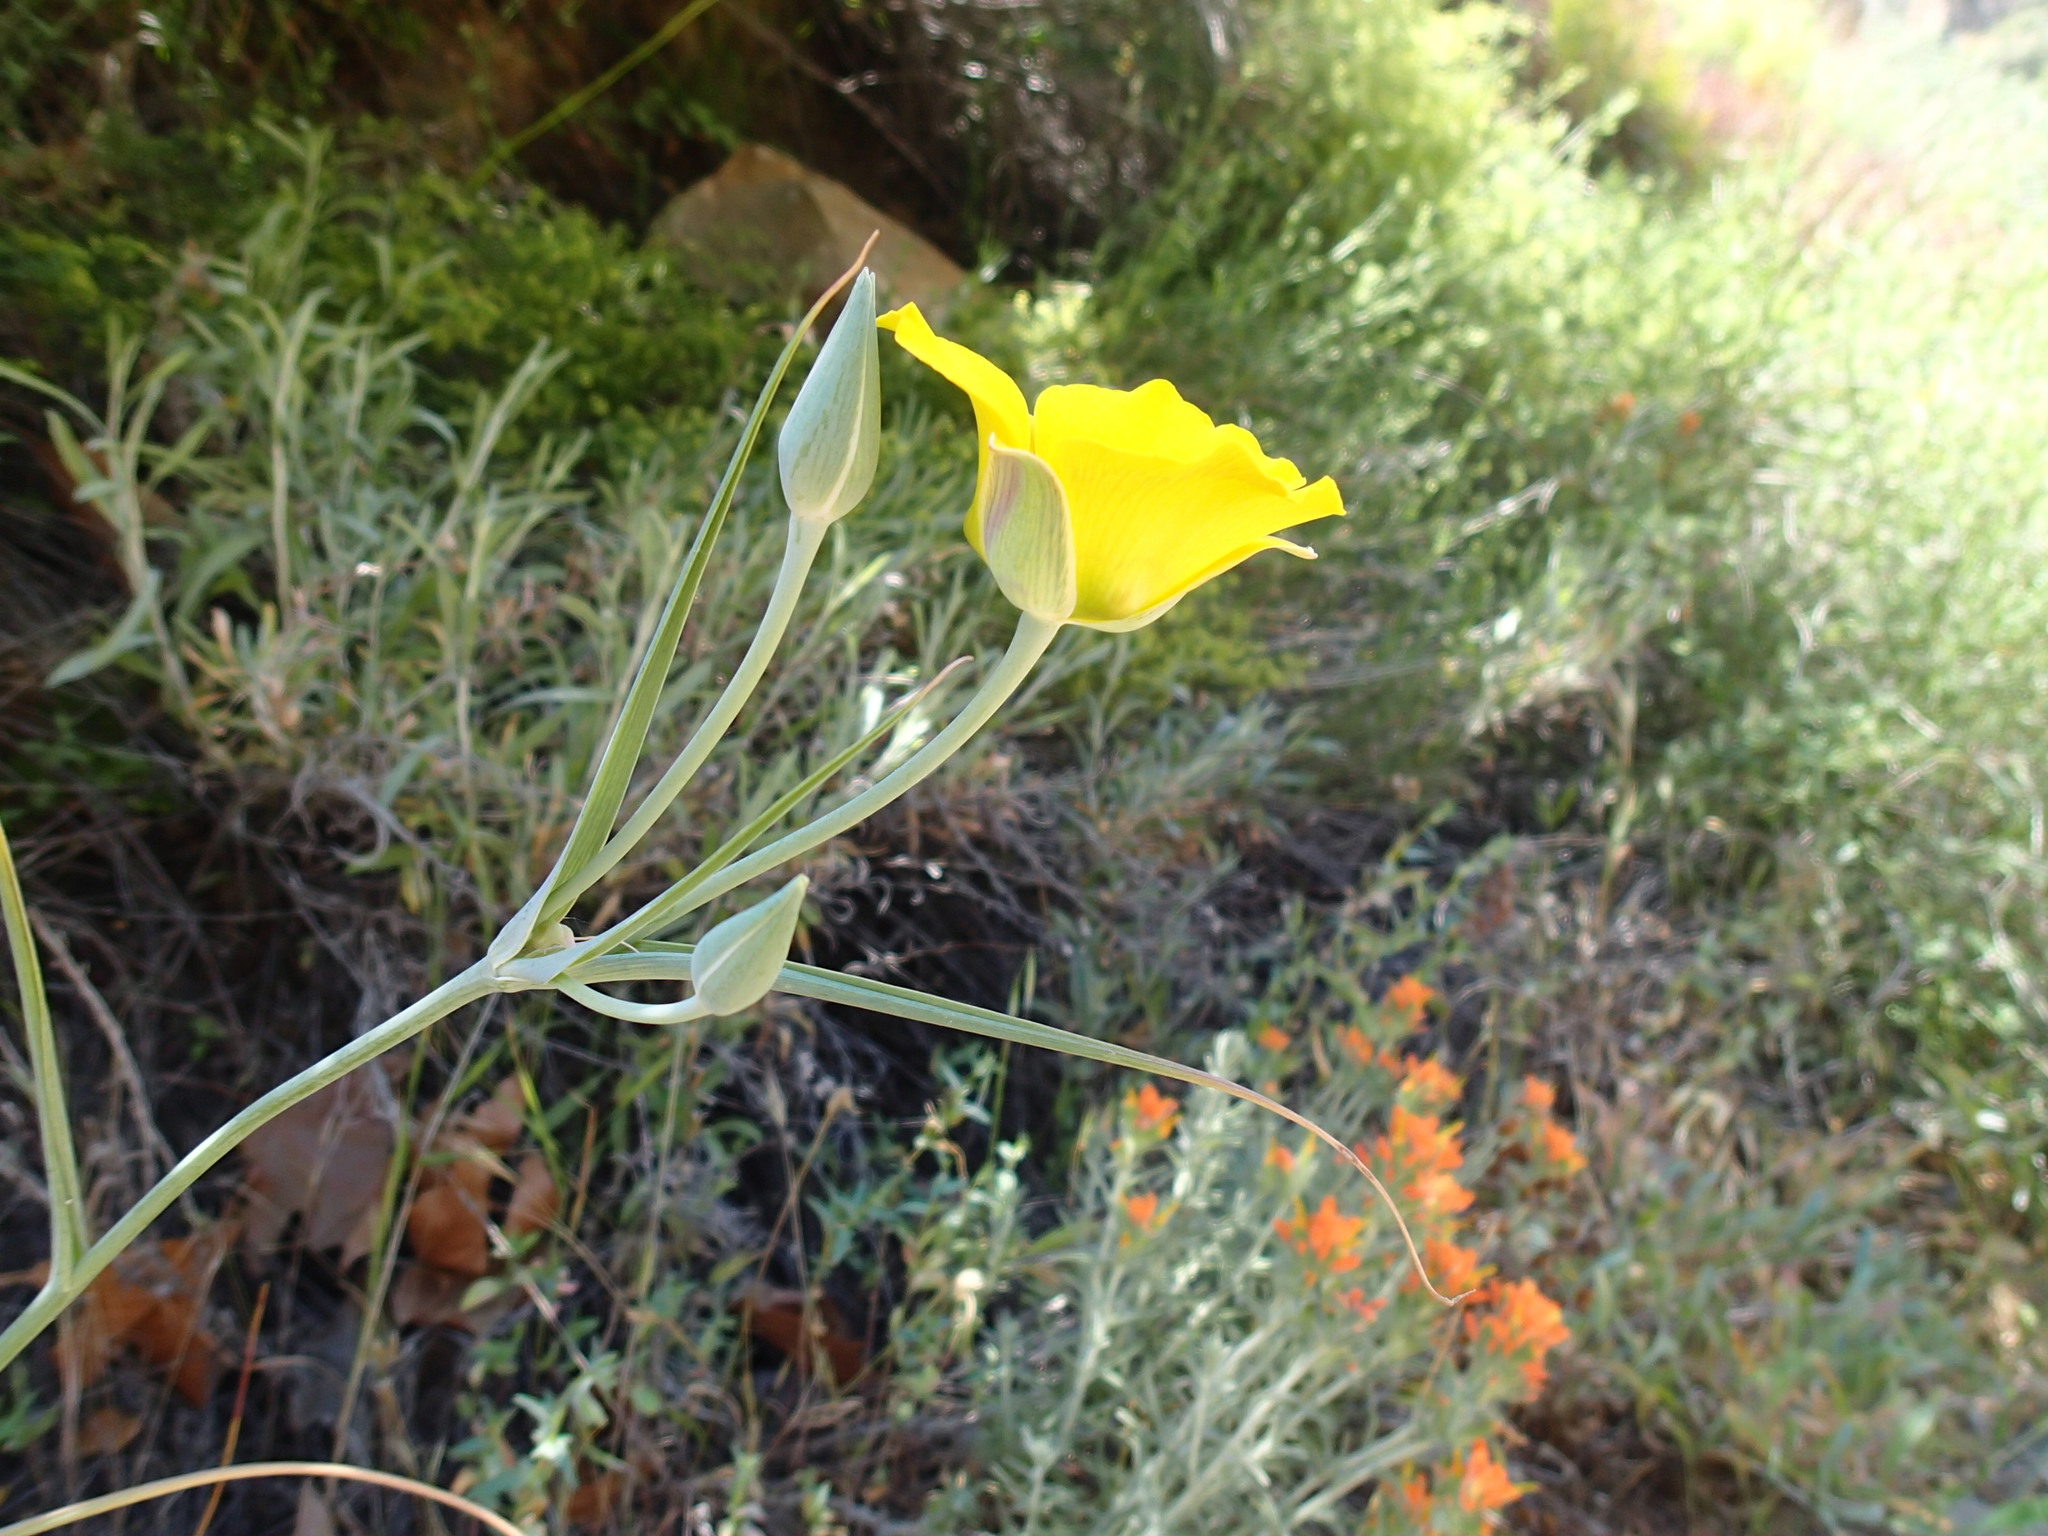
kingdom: Plantae
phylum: Tracheophyta
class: Liliopsida
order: Liliales
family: Liliaceae
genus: Calochortus
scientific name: Calochortus clavatus
